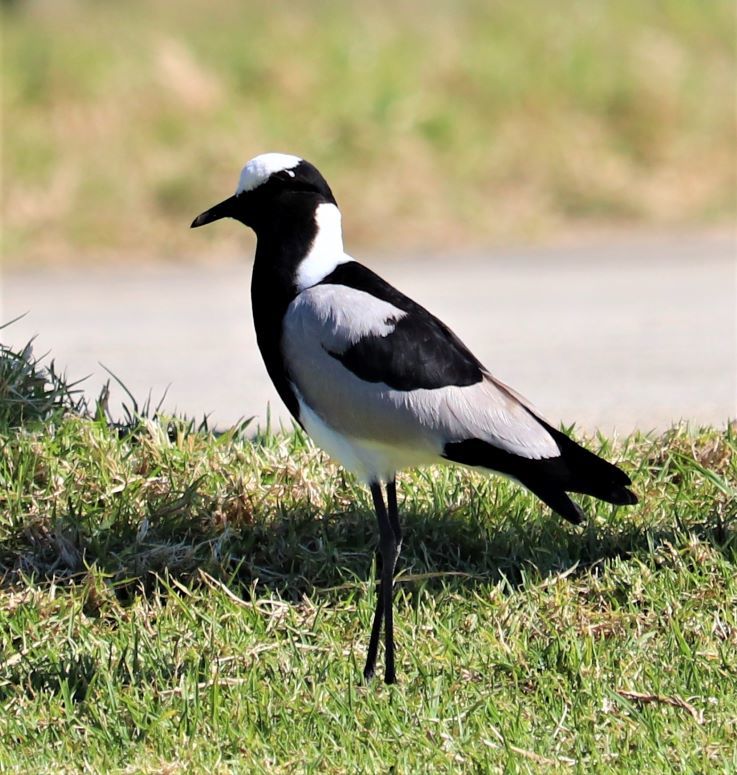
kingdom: Animalia
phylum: Chordata
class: Aves
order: Charadriiformes
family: Charadriidae
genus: Vanellus
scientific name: Vanellus armatus
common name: Blacksmith lapwing
